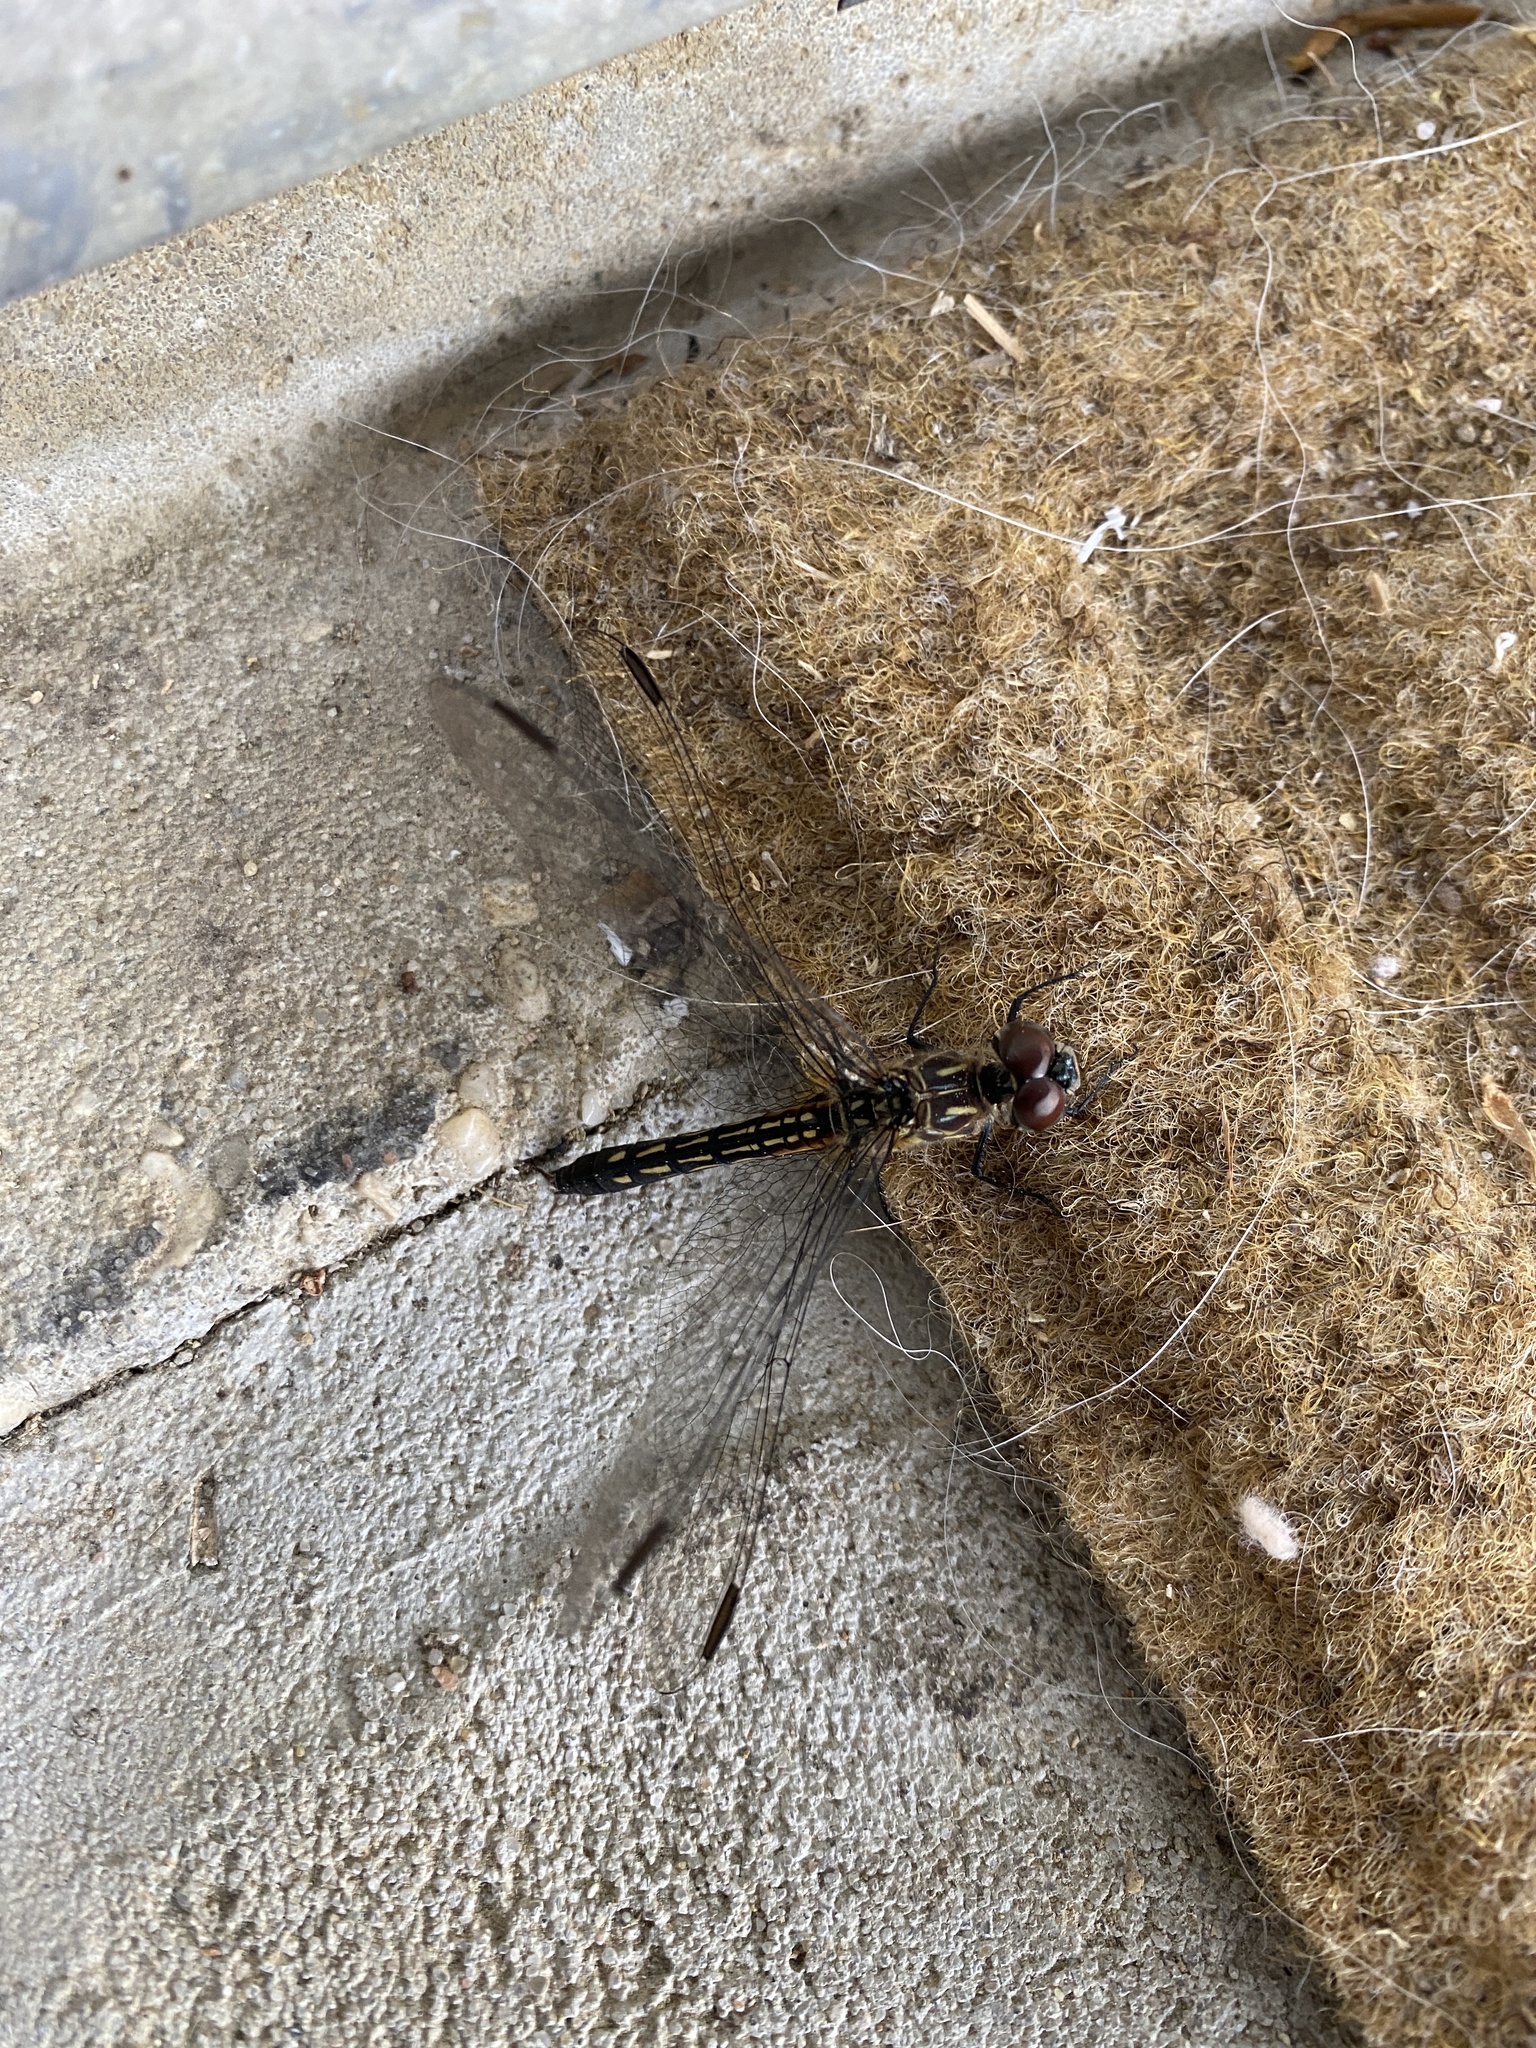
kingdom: Animalia
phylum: Arthropoda
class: Insecta
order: Odonata
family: Libellulidae
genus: Pachydiplax
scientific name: Pachydiplax longipennis
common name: Blue dasher
